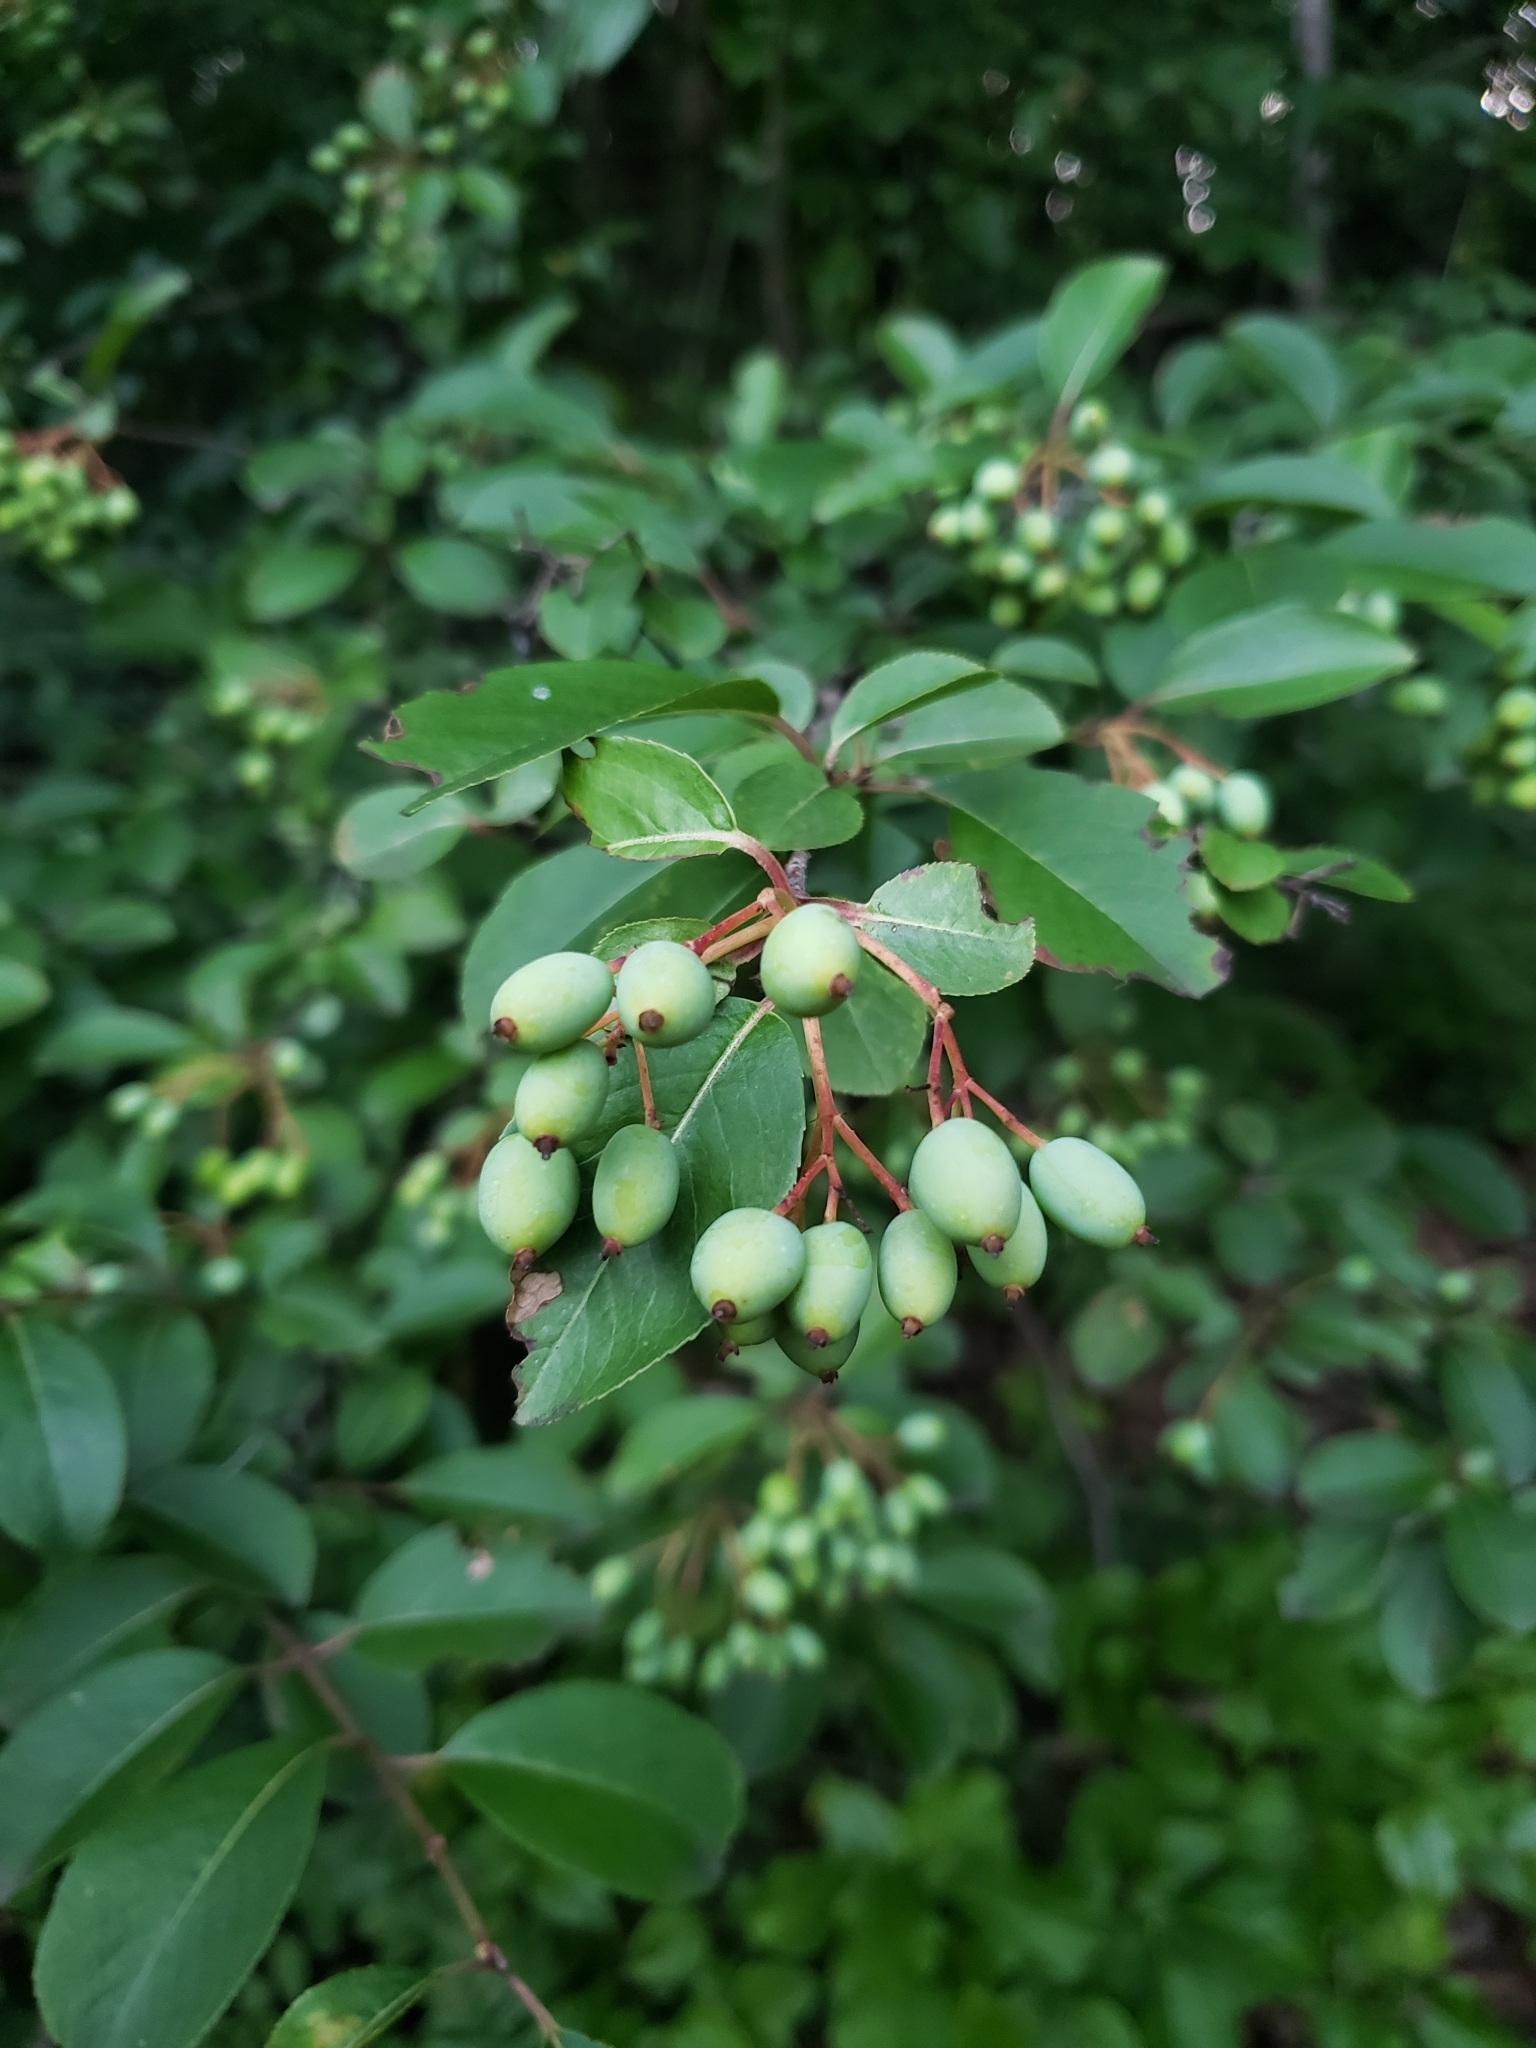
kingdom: Plantae
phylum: Tracheophyta
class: Magnoliopsida
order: Dipsacales
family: Viburnaceae
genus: Viburnum
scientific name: Viburnum prunifolium
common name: Black haw
